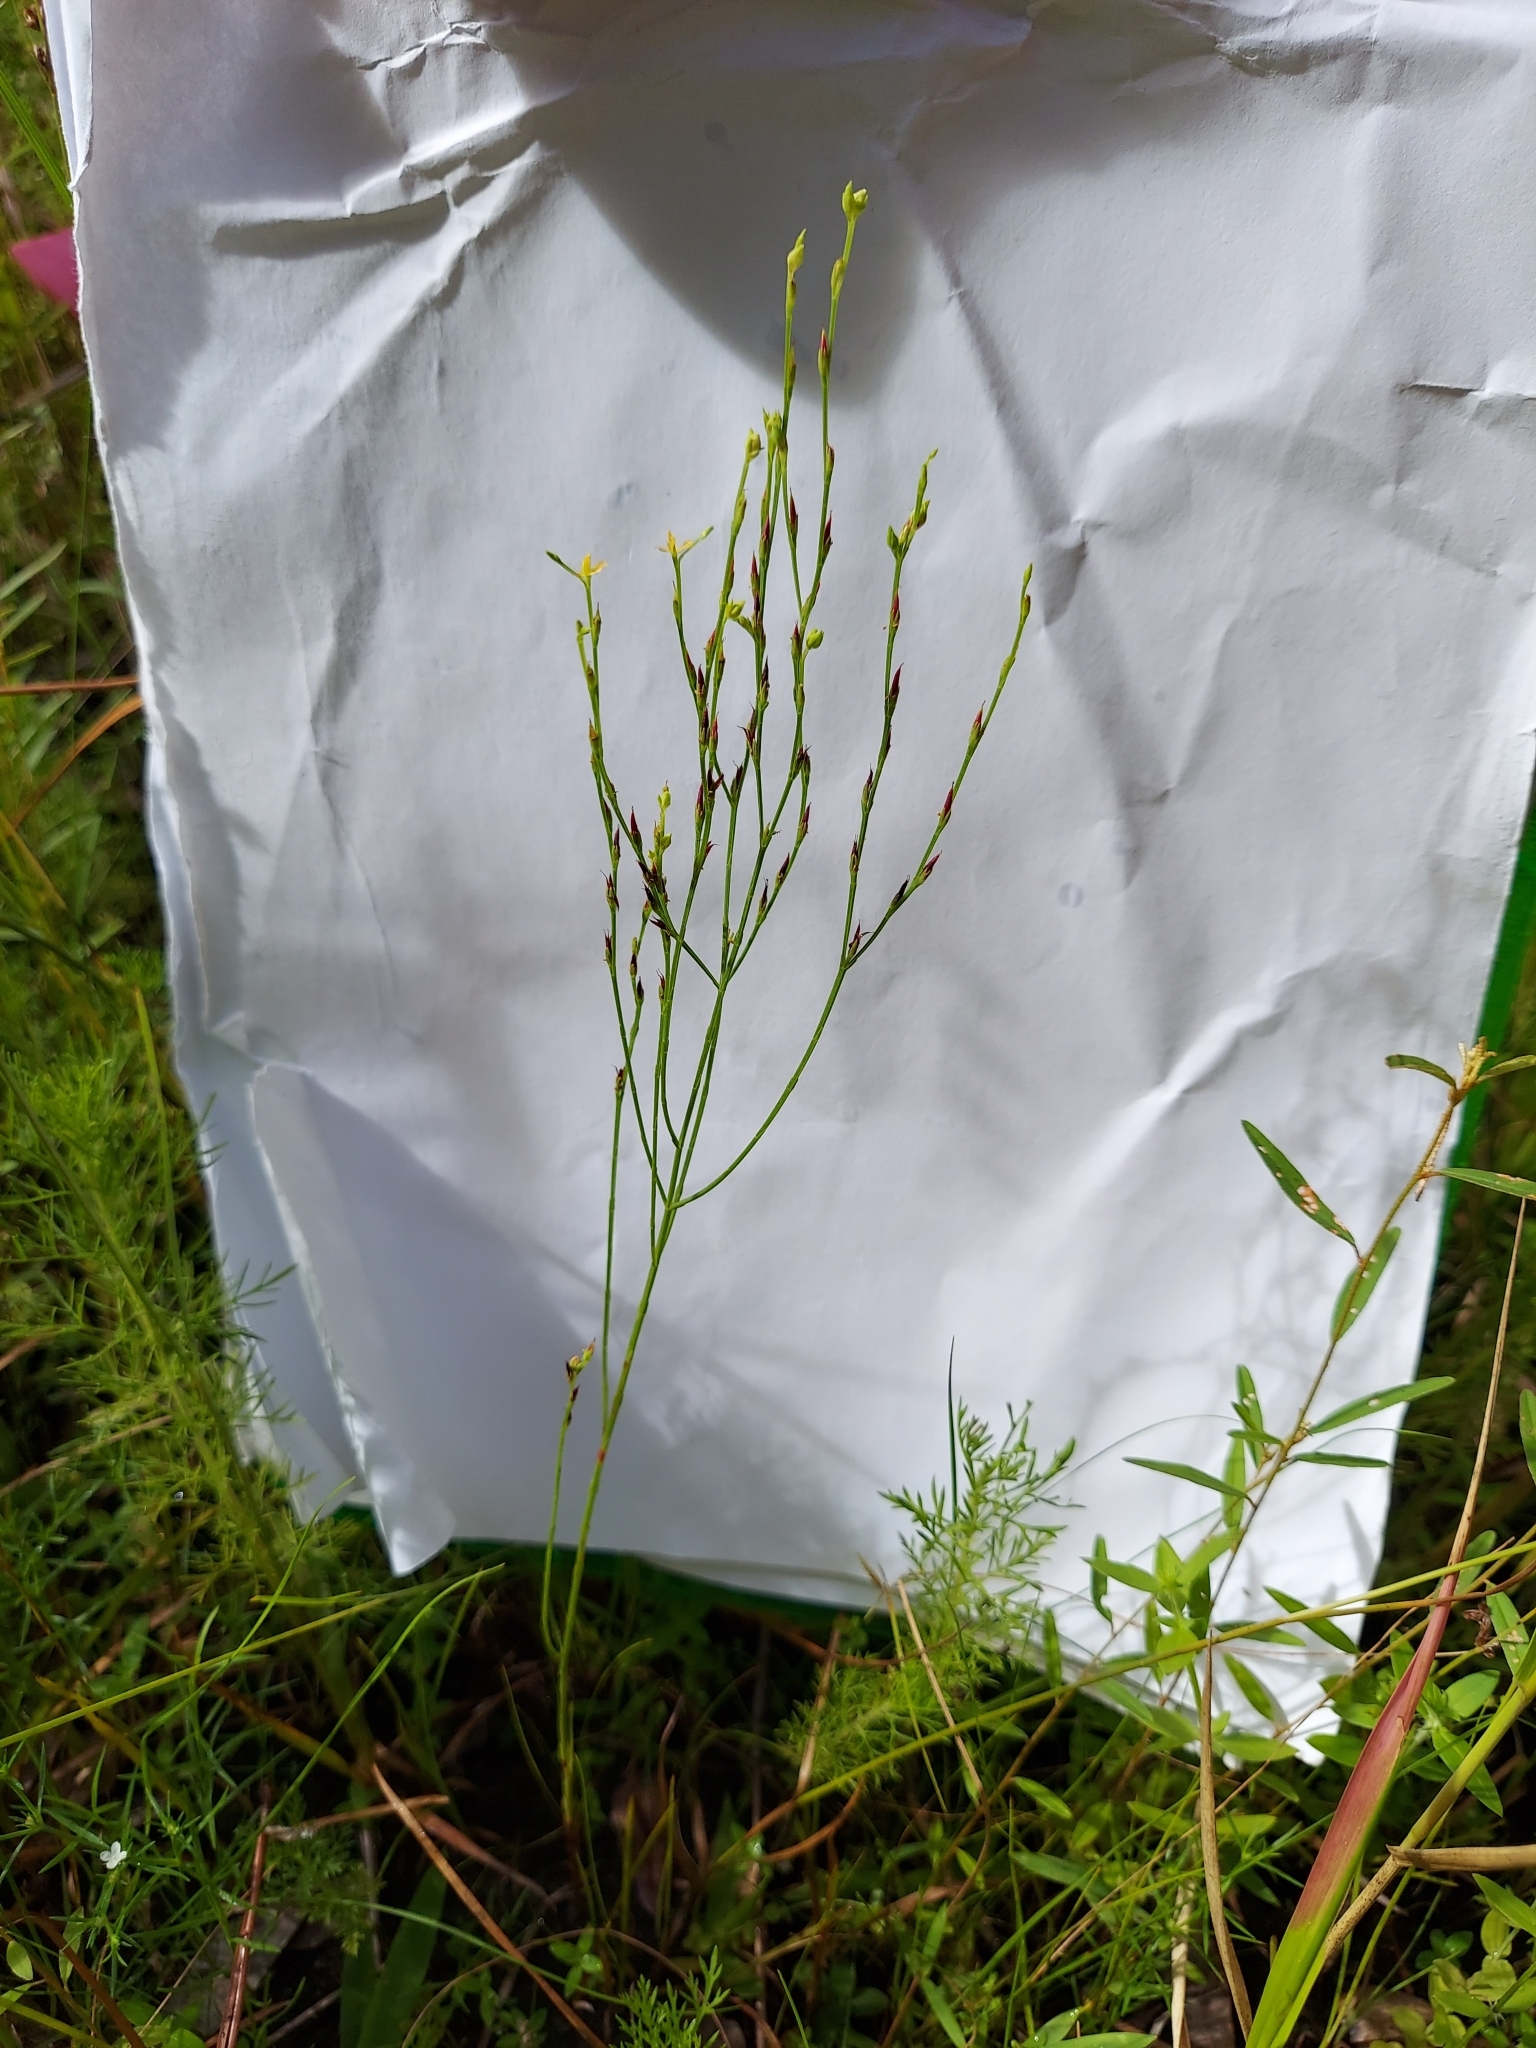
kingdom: Plantae
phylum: Tracheophyta
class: Magnoliopsida
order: Malpighiales
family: Hypericaceae
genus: Hypericum
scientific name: Hypericum gentianoides
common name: Gentian-leaved st. john's-wort
